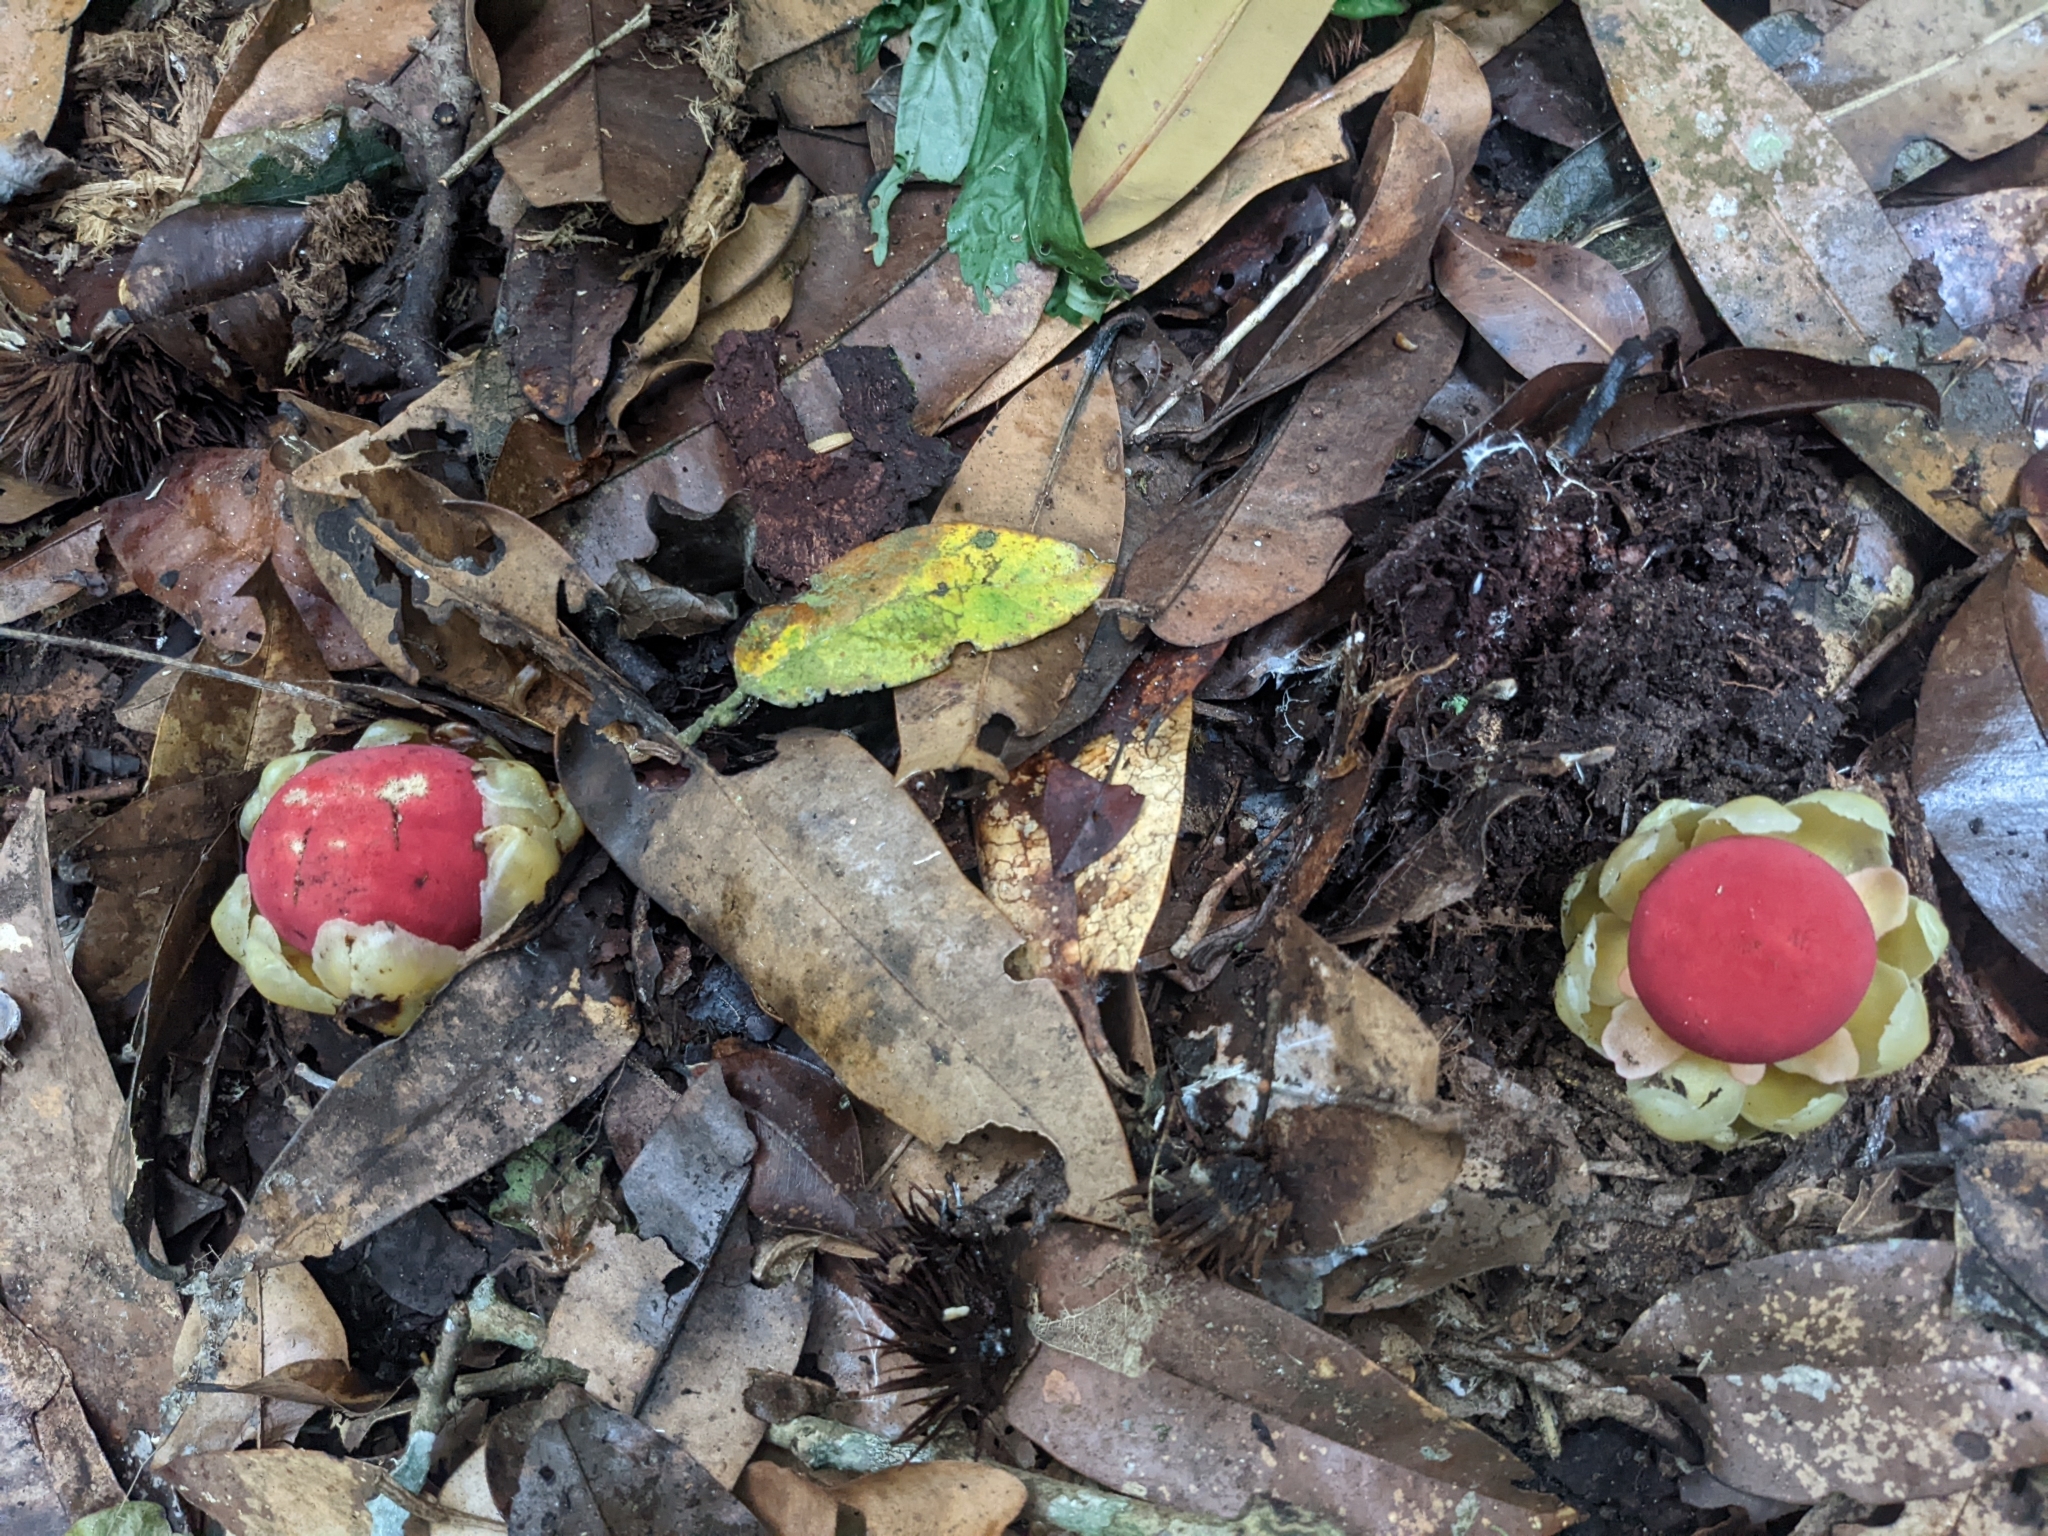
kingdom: Plantae
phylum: Tracheophyta
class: Magnoliopsida
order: Santalales
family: Balanophoraceae
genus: Balanophora
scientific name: Balanophora fungosa
